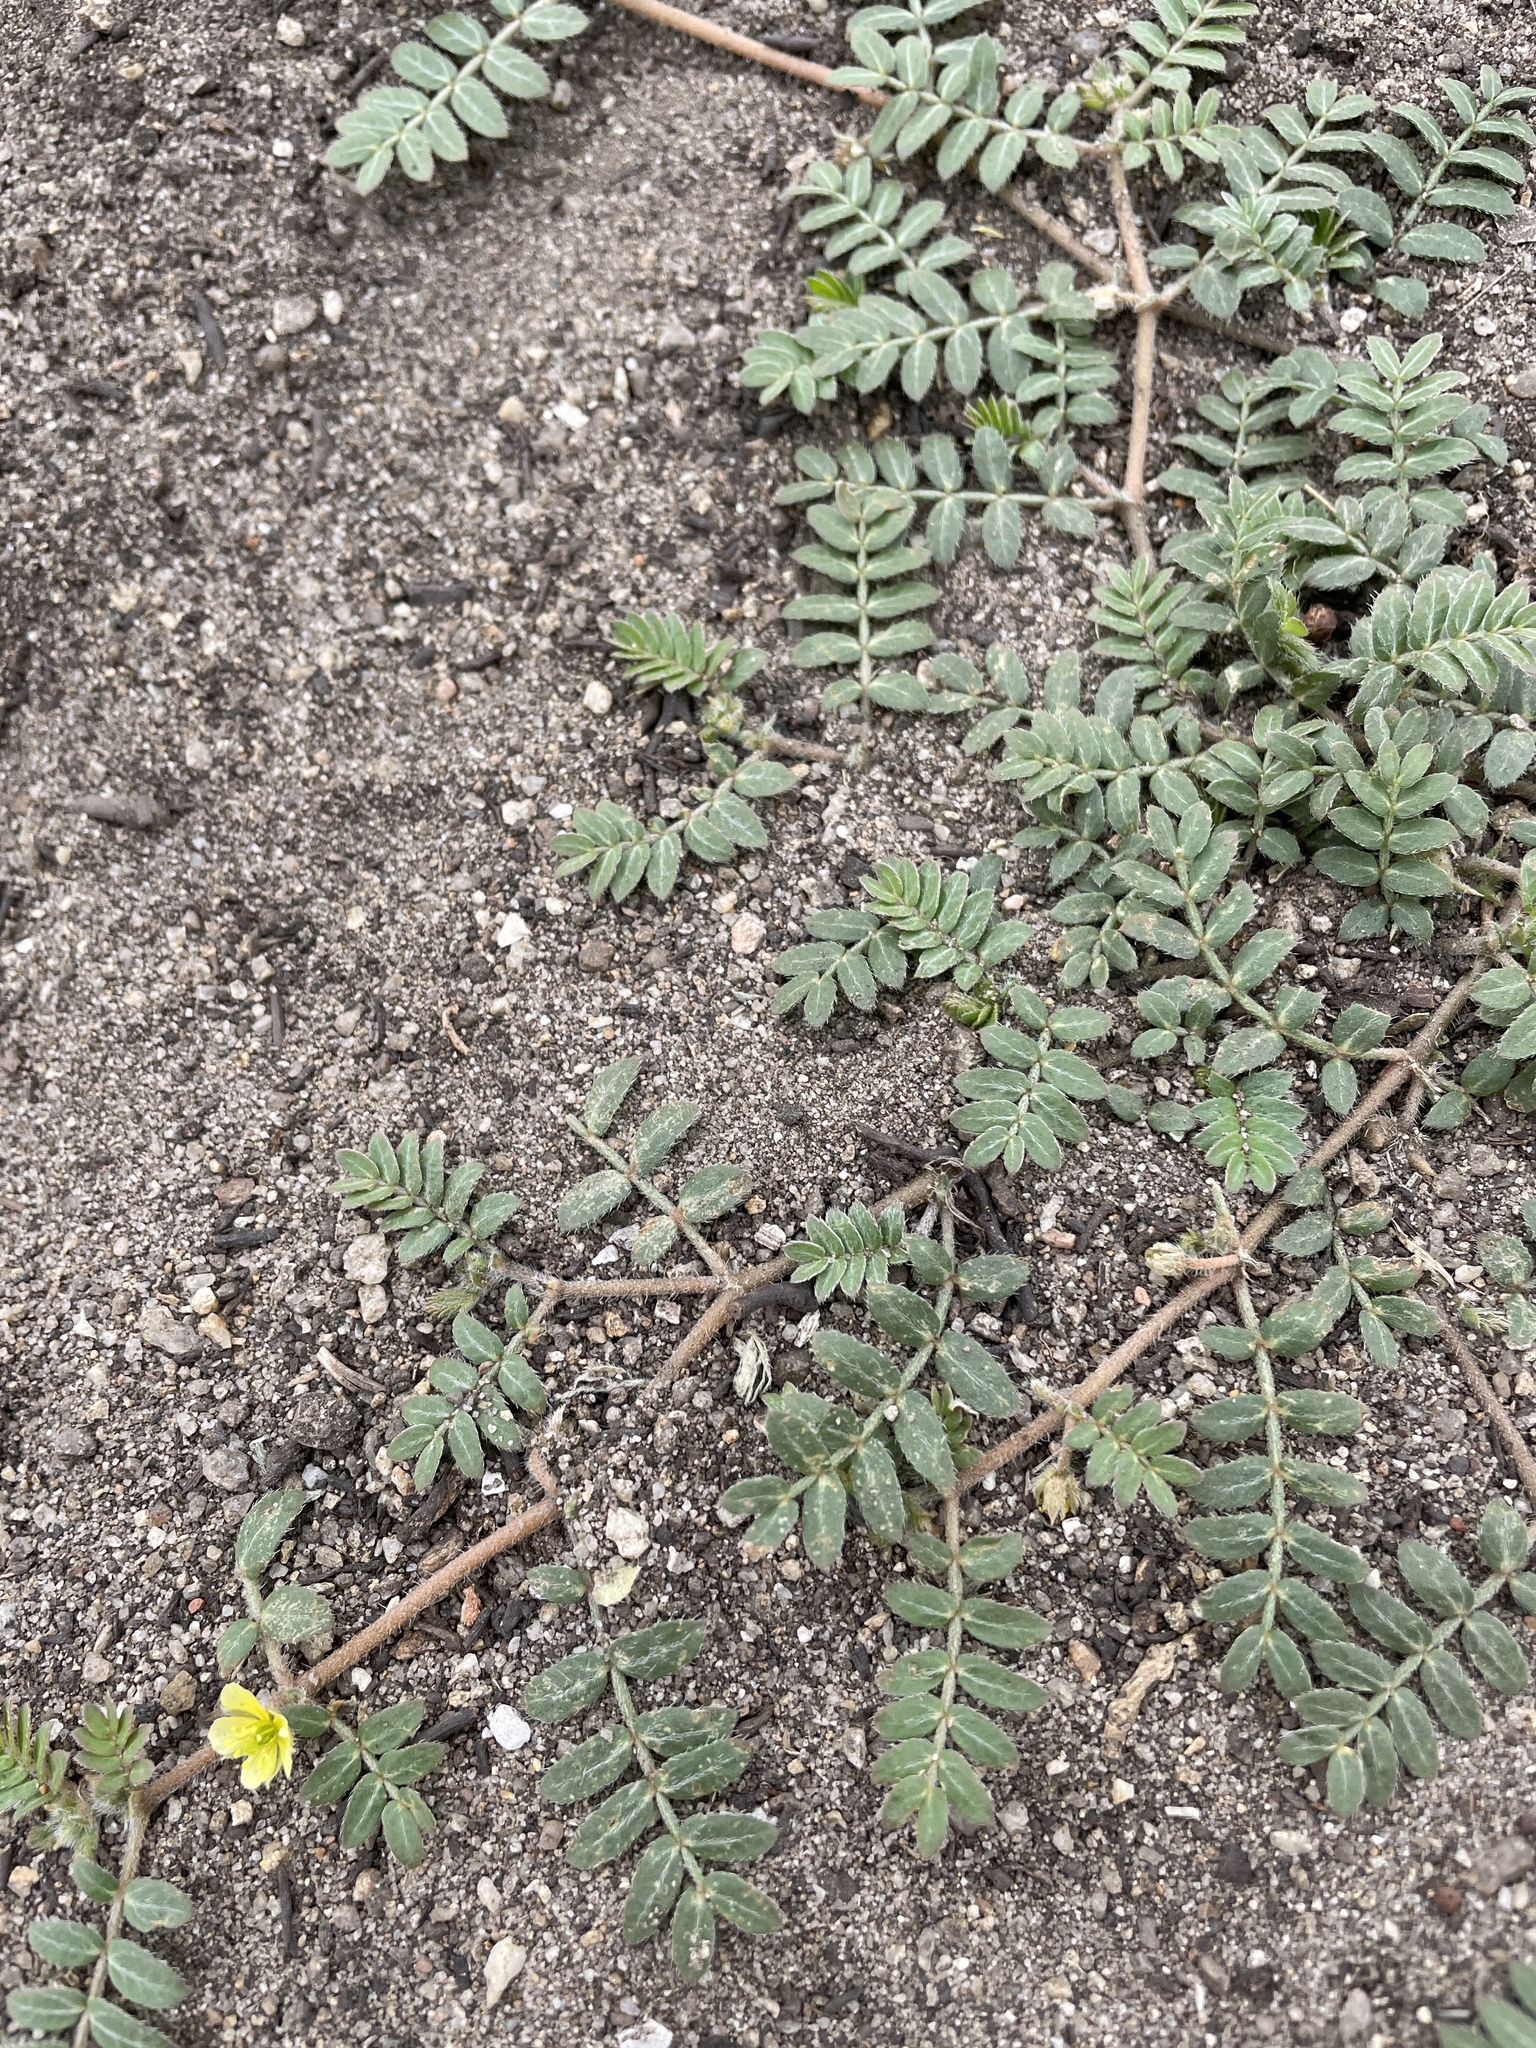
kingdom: Plantae
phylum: Tracheophyta
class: Magnoliopsida
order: Zygophyllales
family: Zygophyllaceae
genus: Tribulus
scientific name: Tribulus terrestris
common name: Puncturevine
